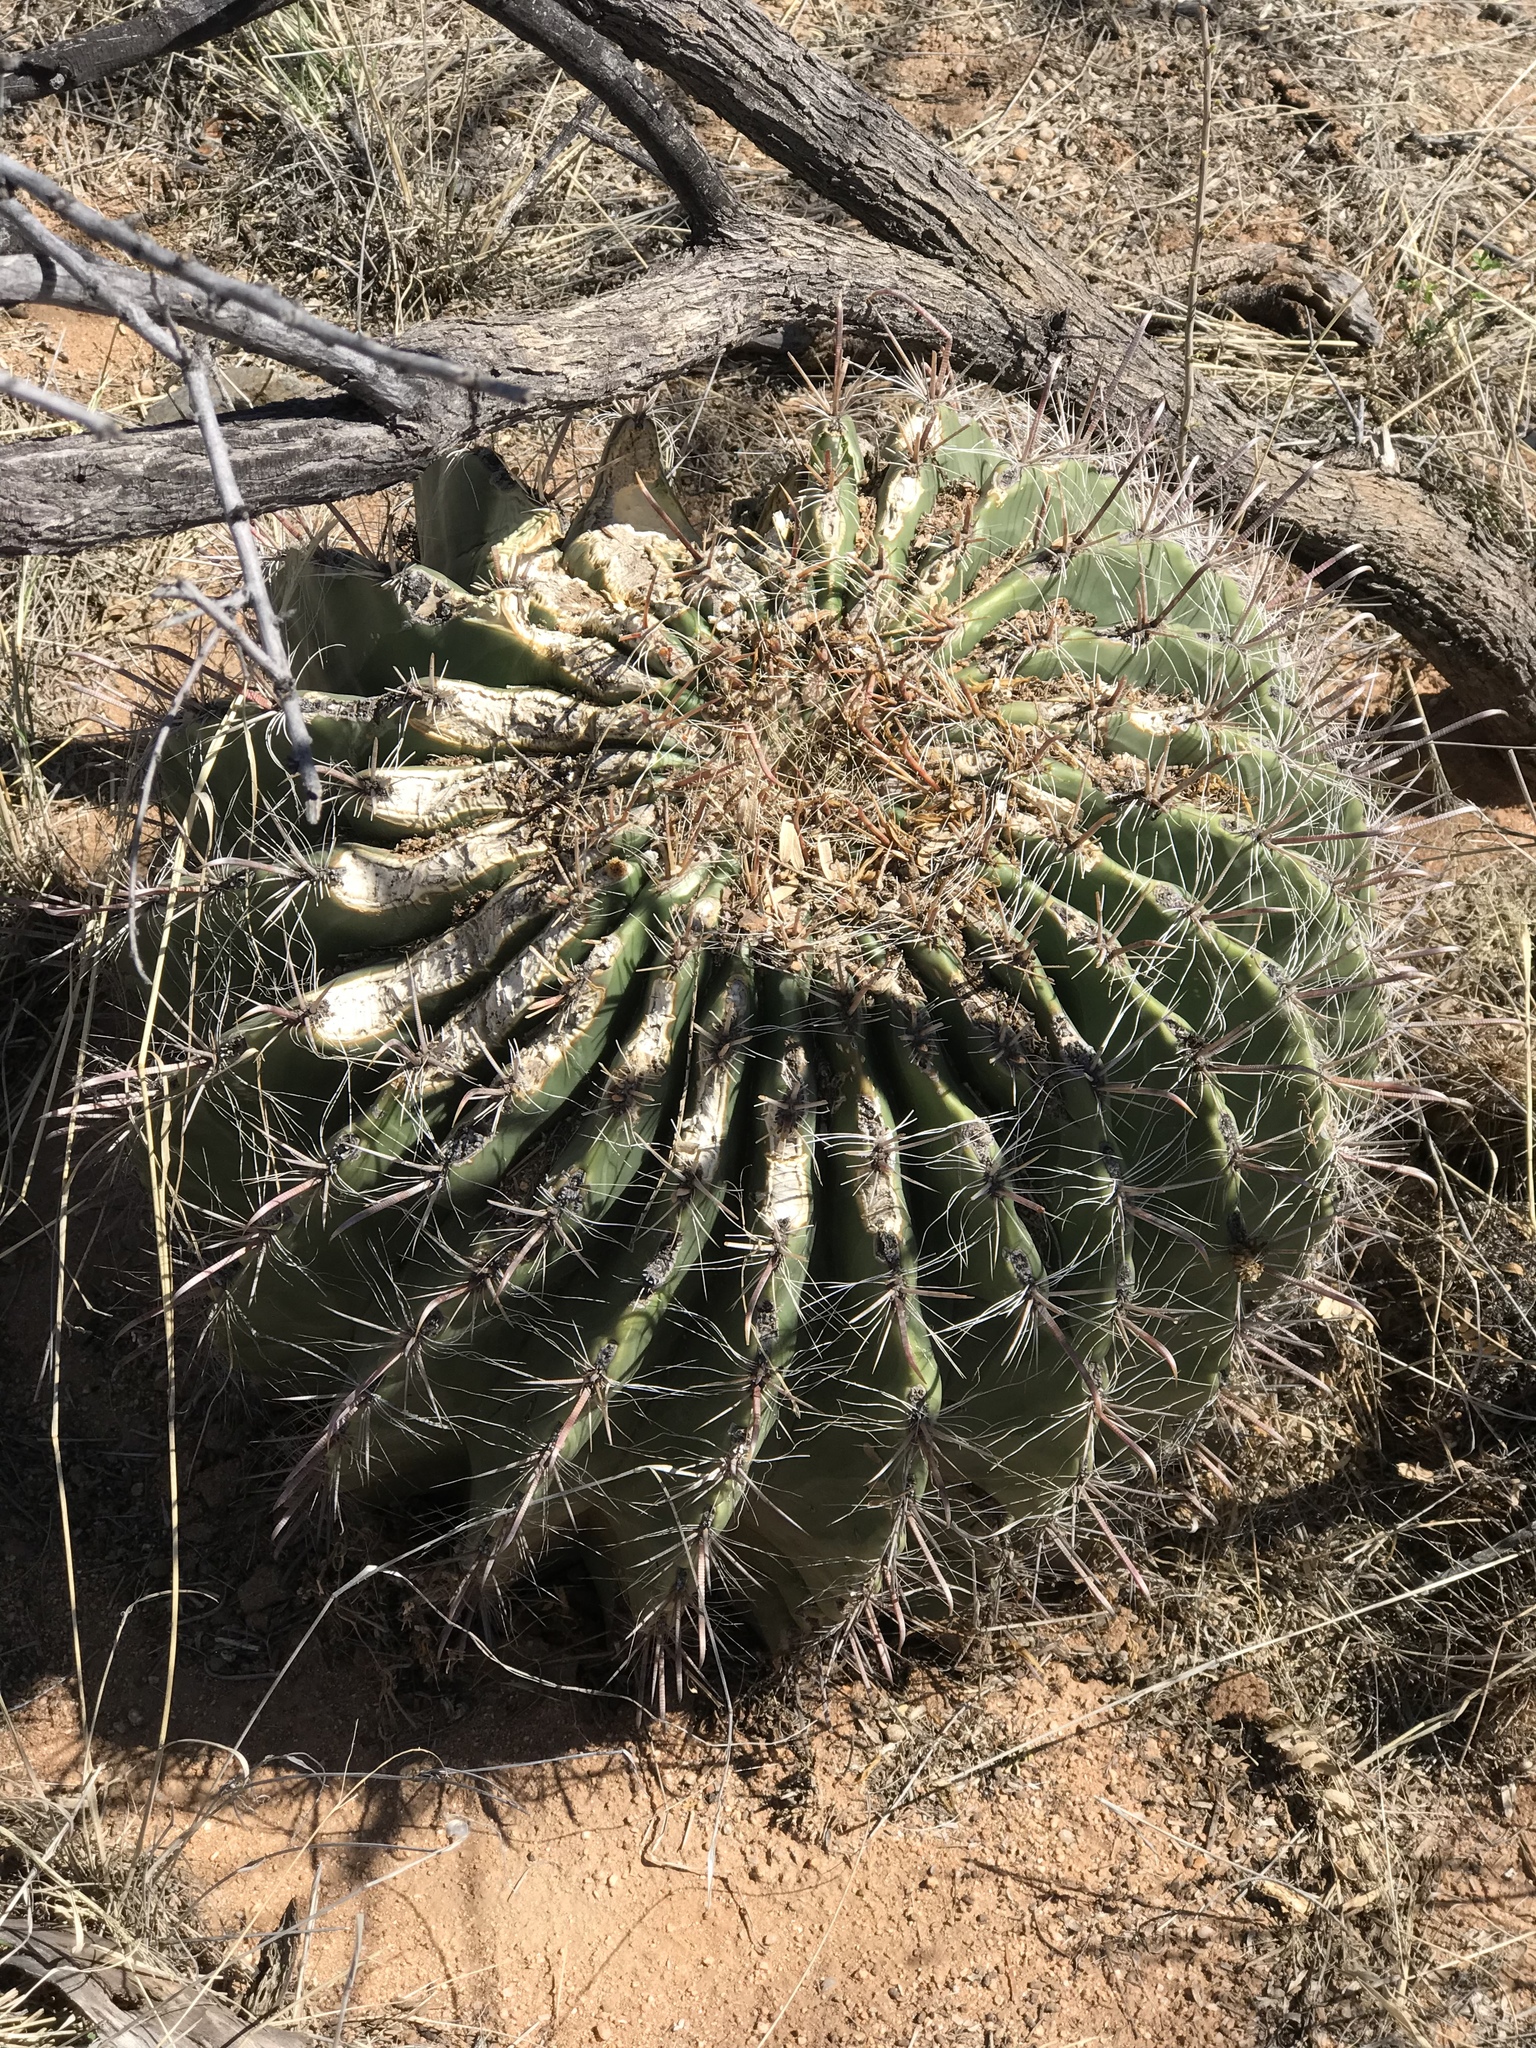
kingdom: Plantae
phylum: Tracheophyta
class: Magnoliopsida
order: Caryophyllales
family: Cactaceae
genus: Ferocactus
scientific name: Ferocactus wislizeni
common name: Candy barrel cactus
